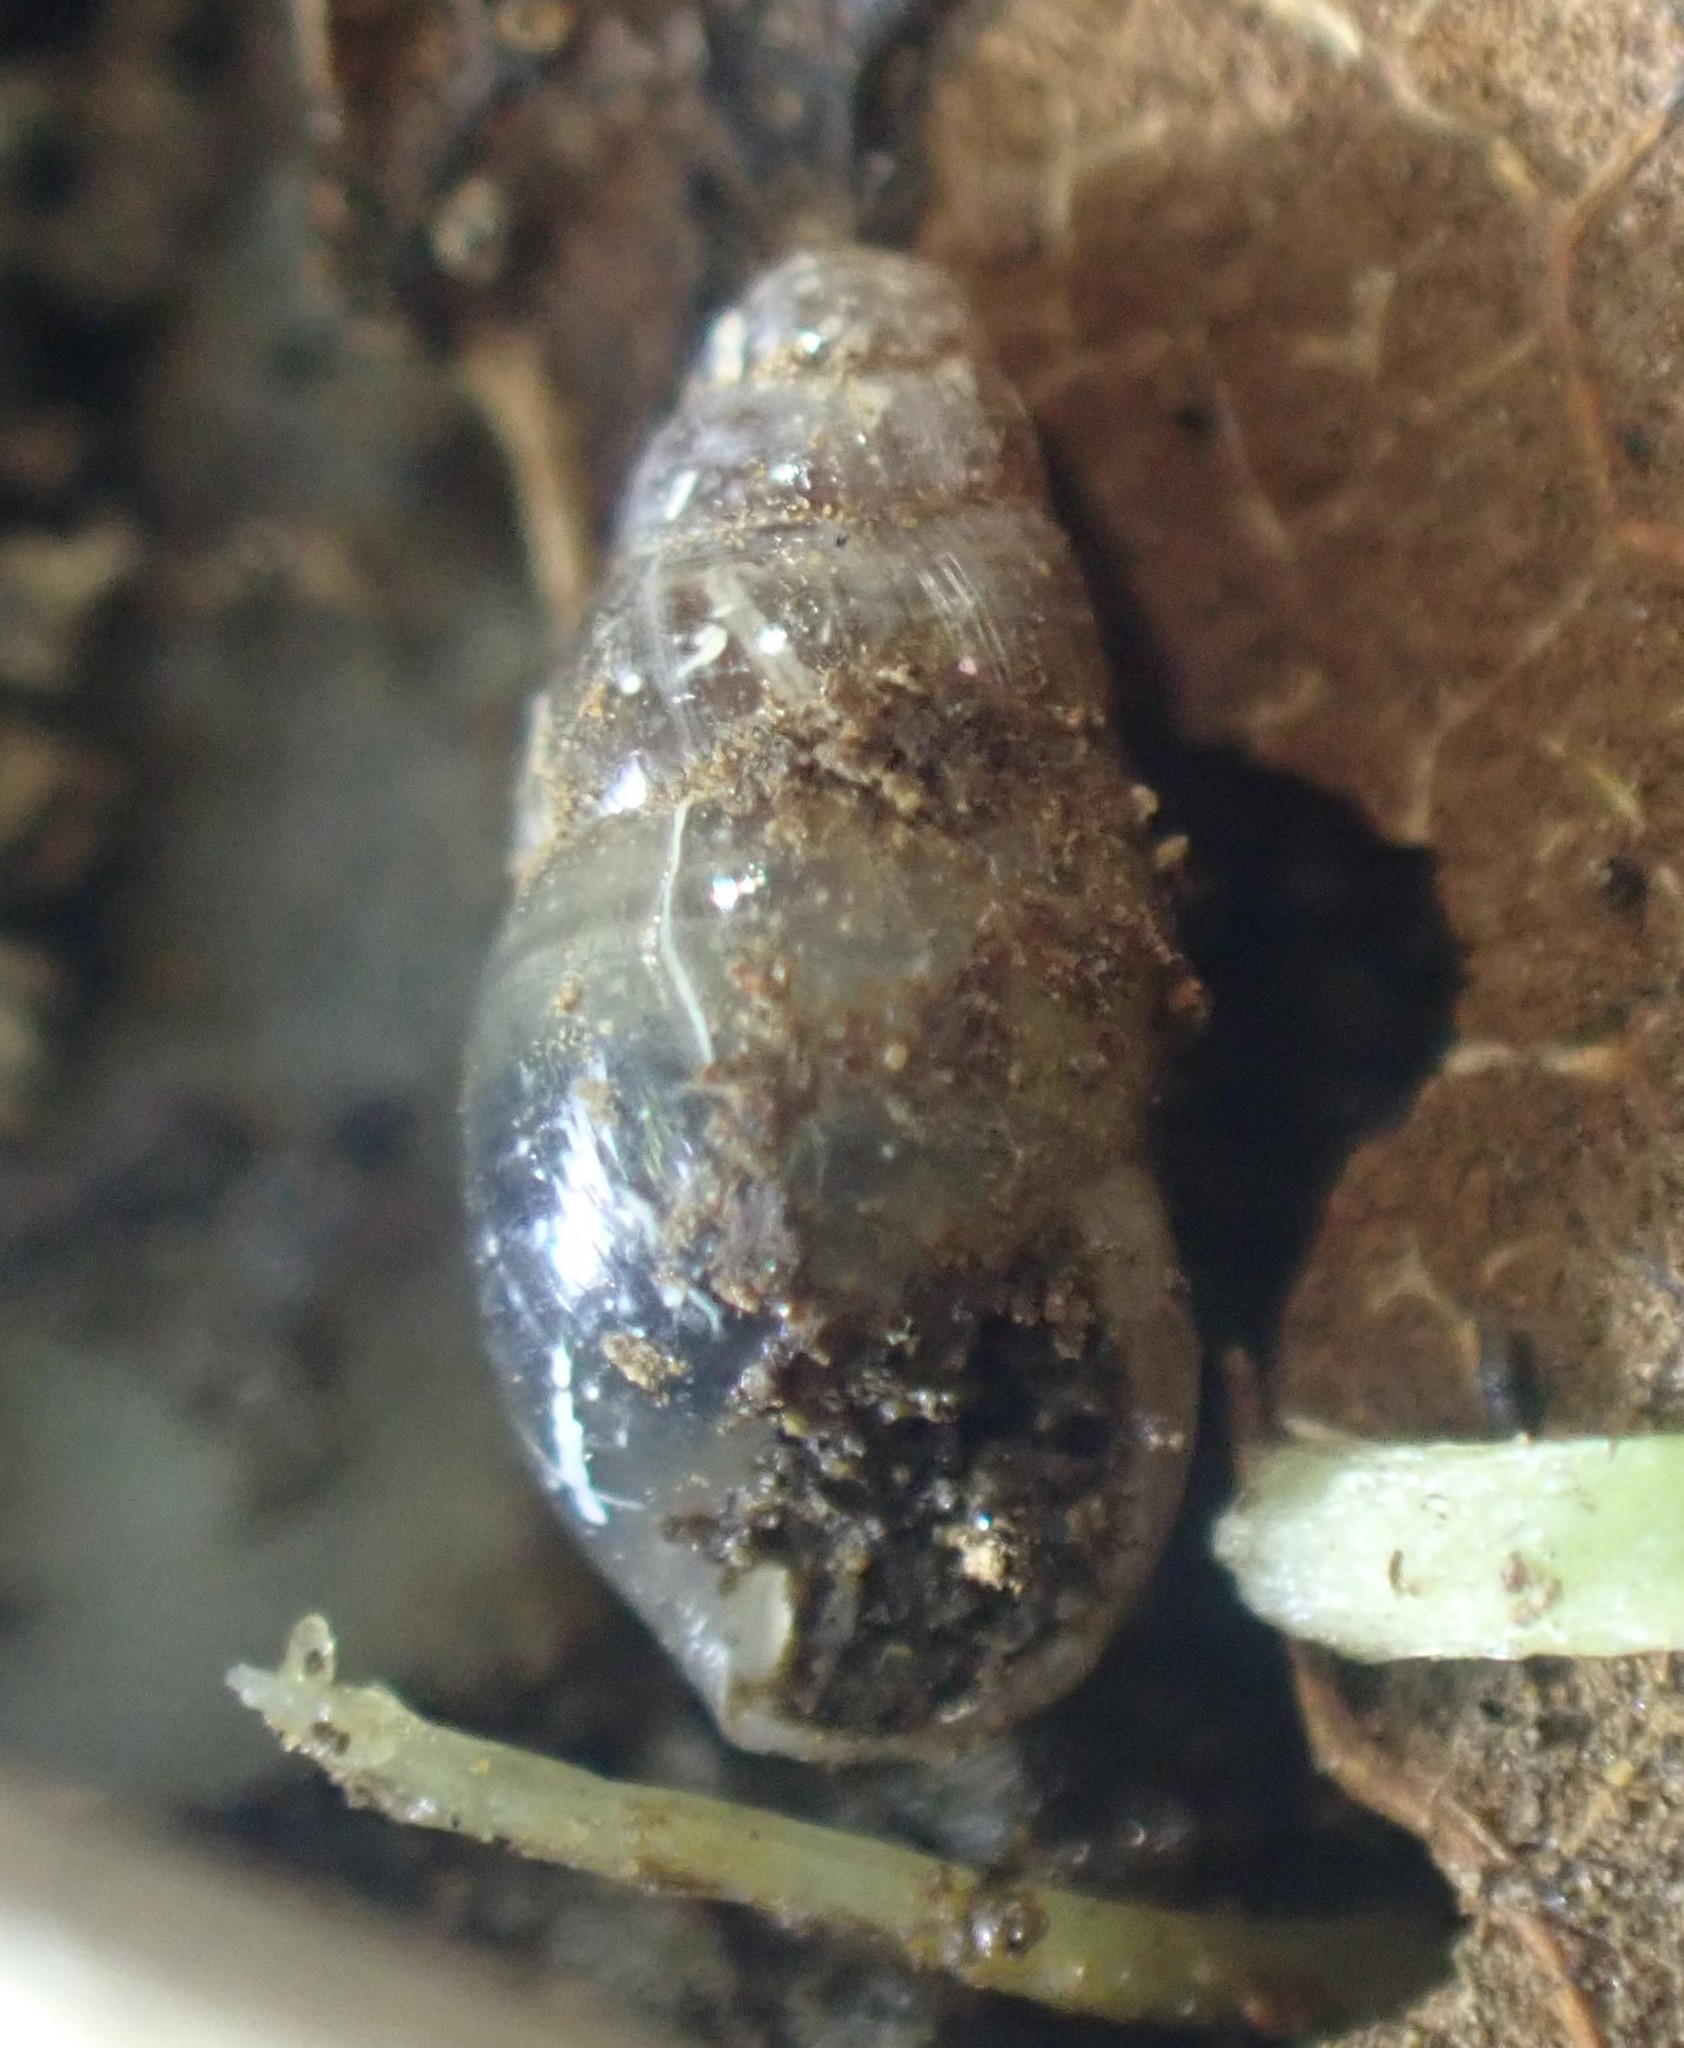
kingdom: Animalia
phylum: Mollusca
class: Gastropoda
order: Stylommatophora
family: Cochlicopidae
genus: Cochlicopa
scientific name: Cochlicopa lubrica
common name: Glossy pillar snail
